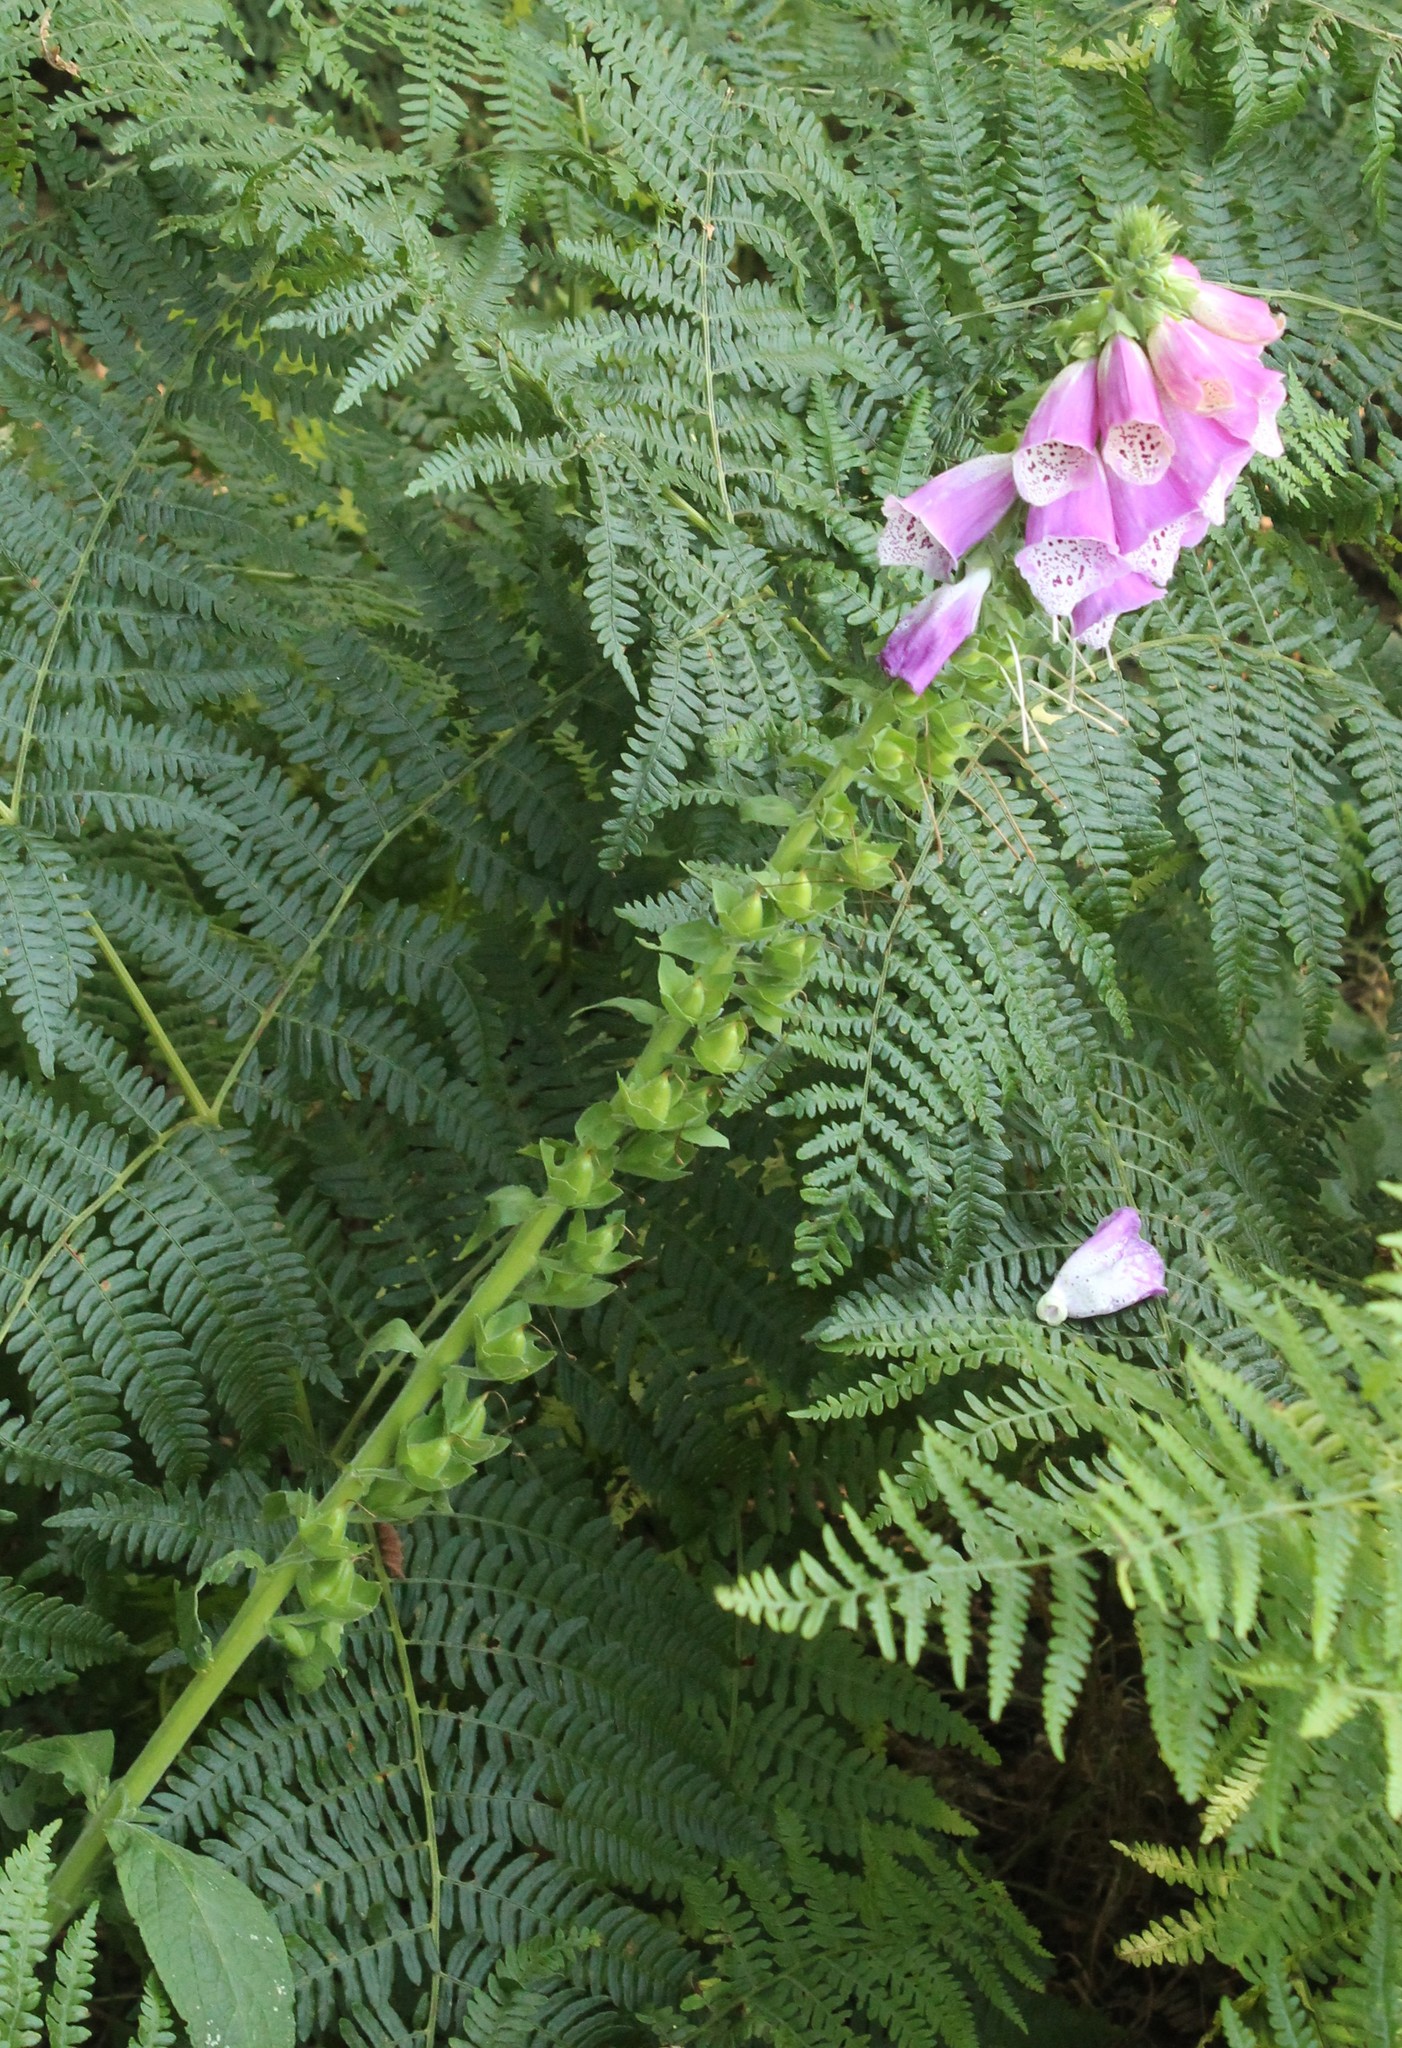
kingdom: Plantae
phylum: Tracheophyta
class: Magnoliopsida
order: Lamiales
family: Plantaginaceae
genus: Digitalis
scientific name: Digitalis purpurea
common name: Foxglove
